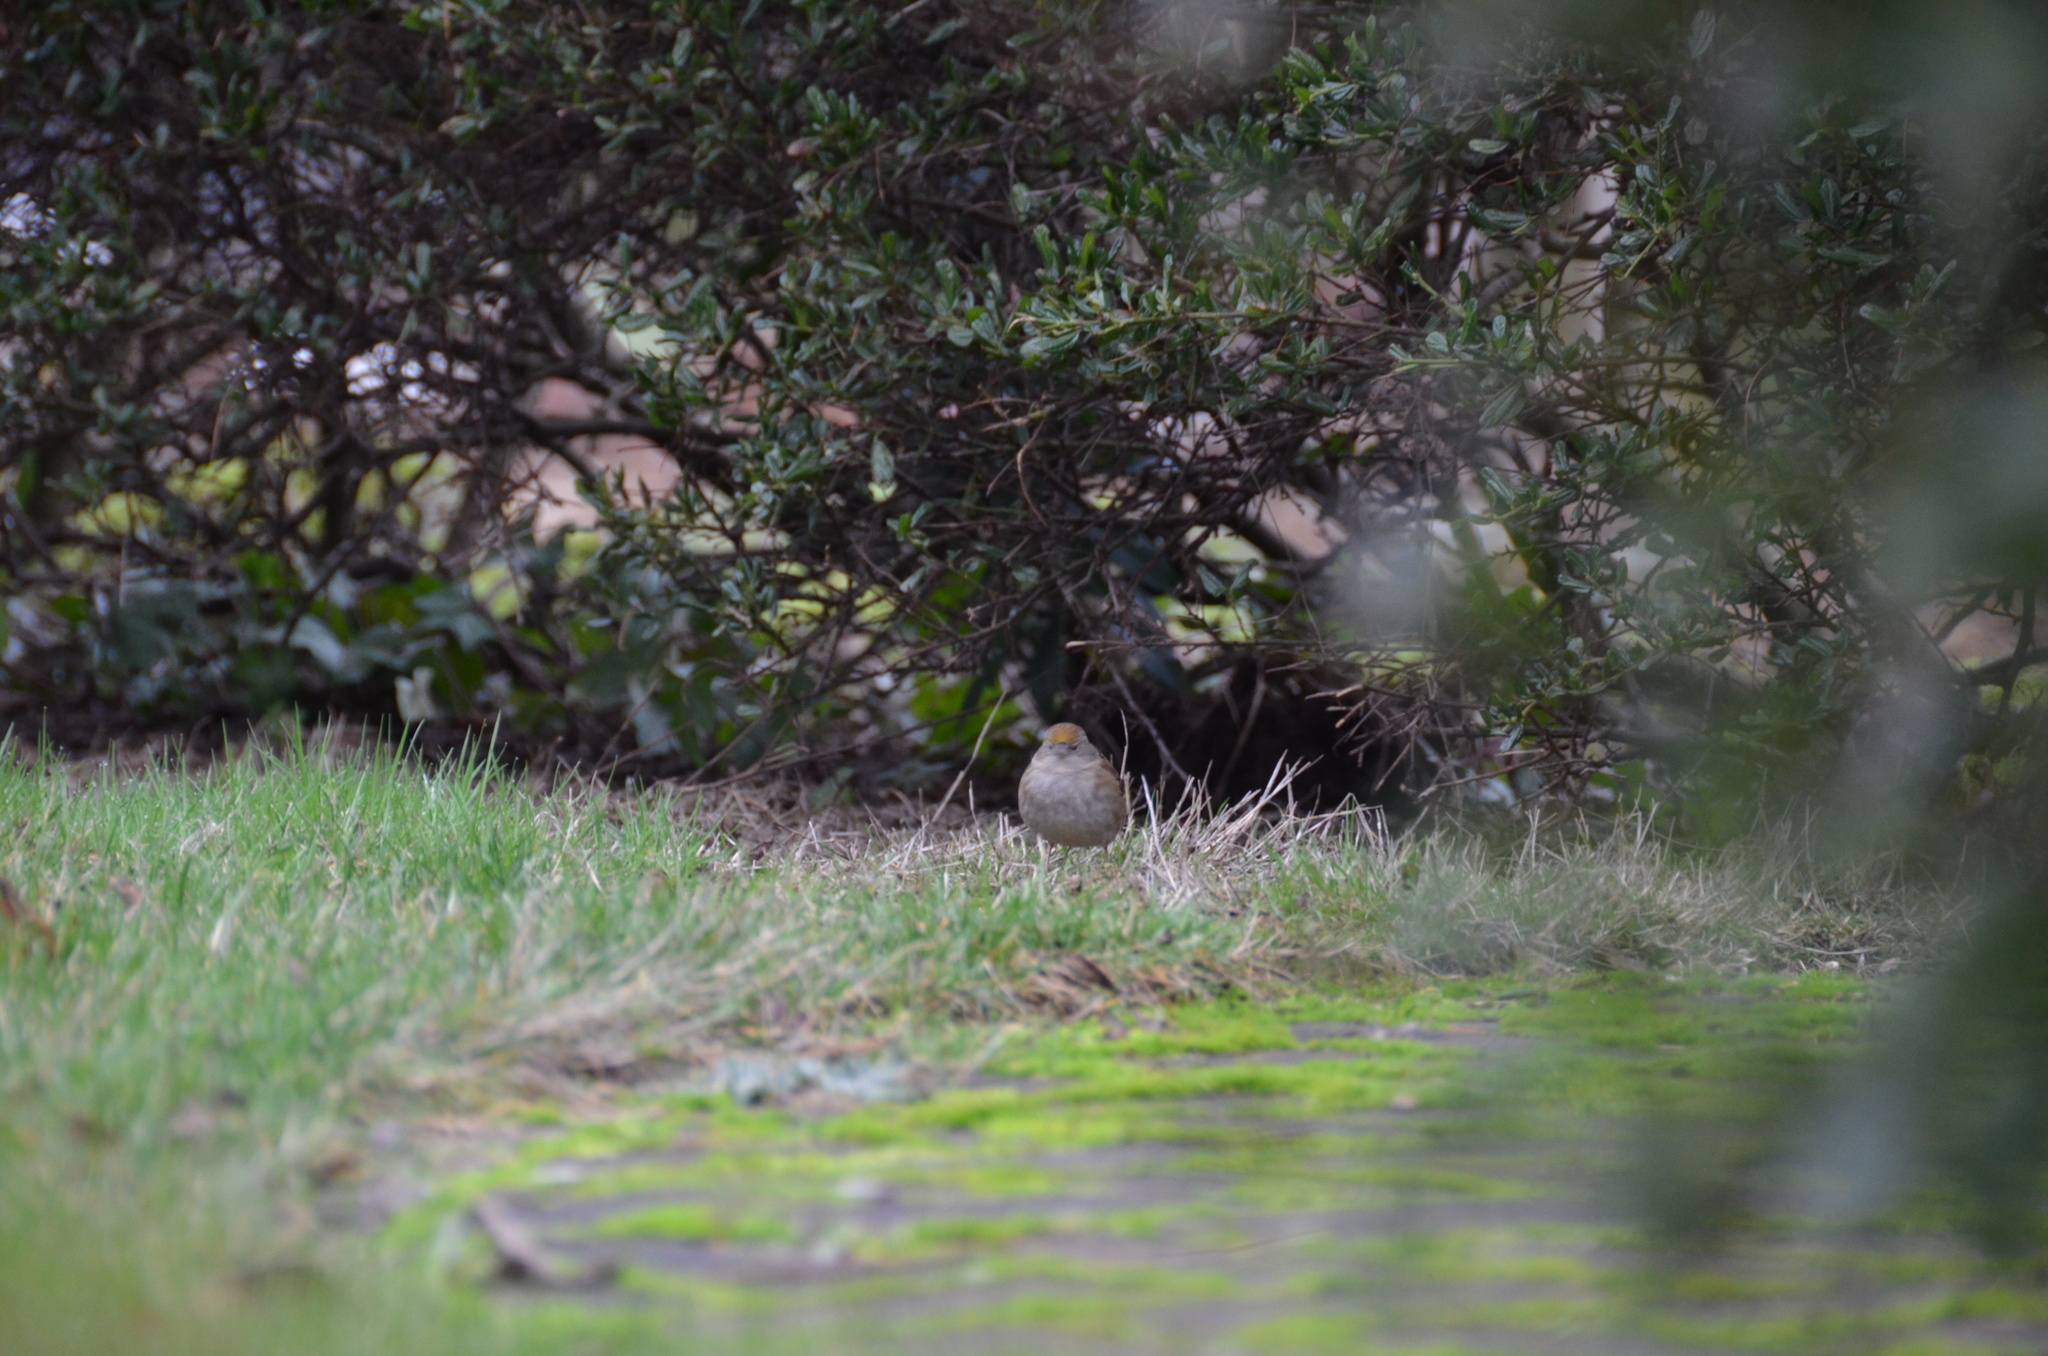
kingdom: Animalia
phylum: Chordata
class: Aves
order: Passeriformes
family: Passerellidae
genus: Zonotrichia
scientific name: Zonotrichia atricapilla
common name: Golden-crowned sparrow
